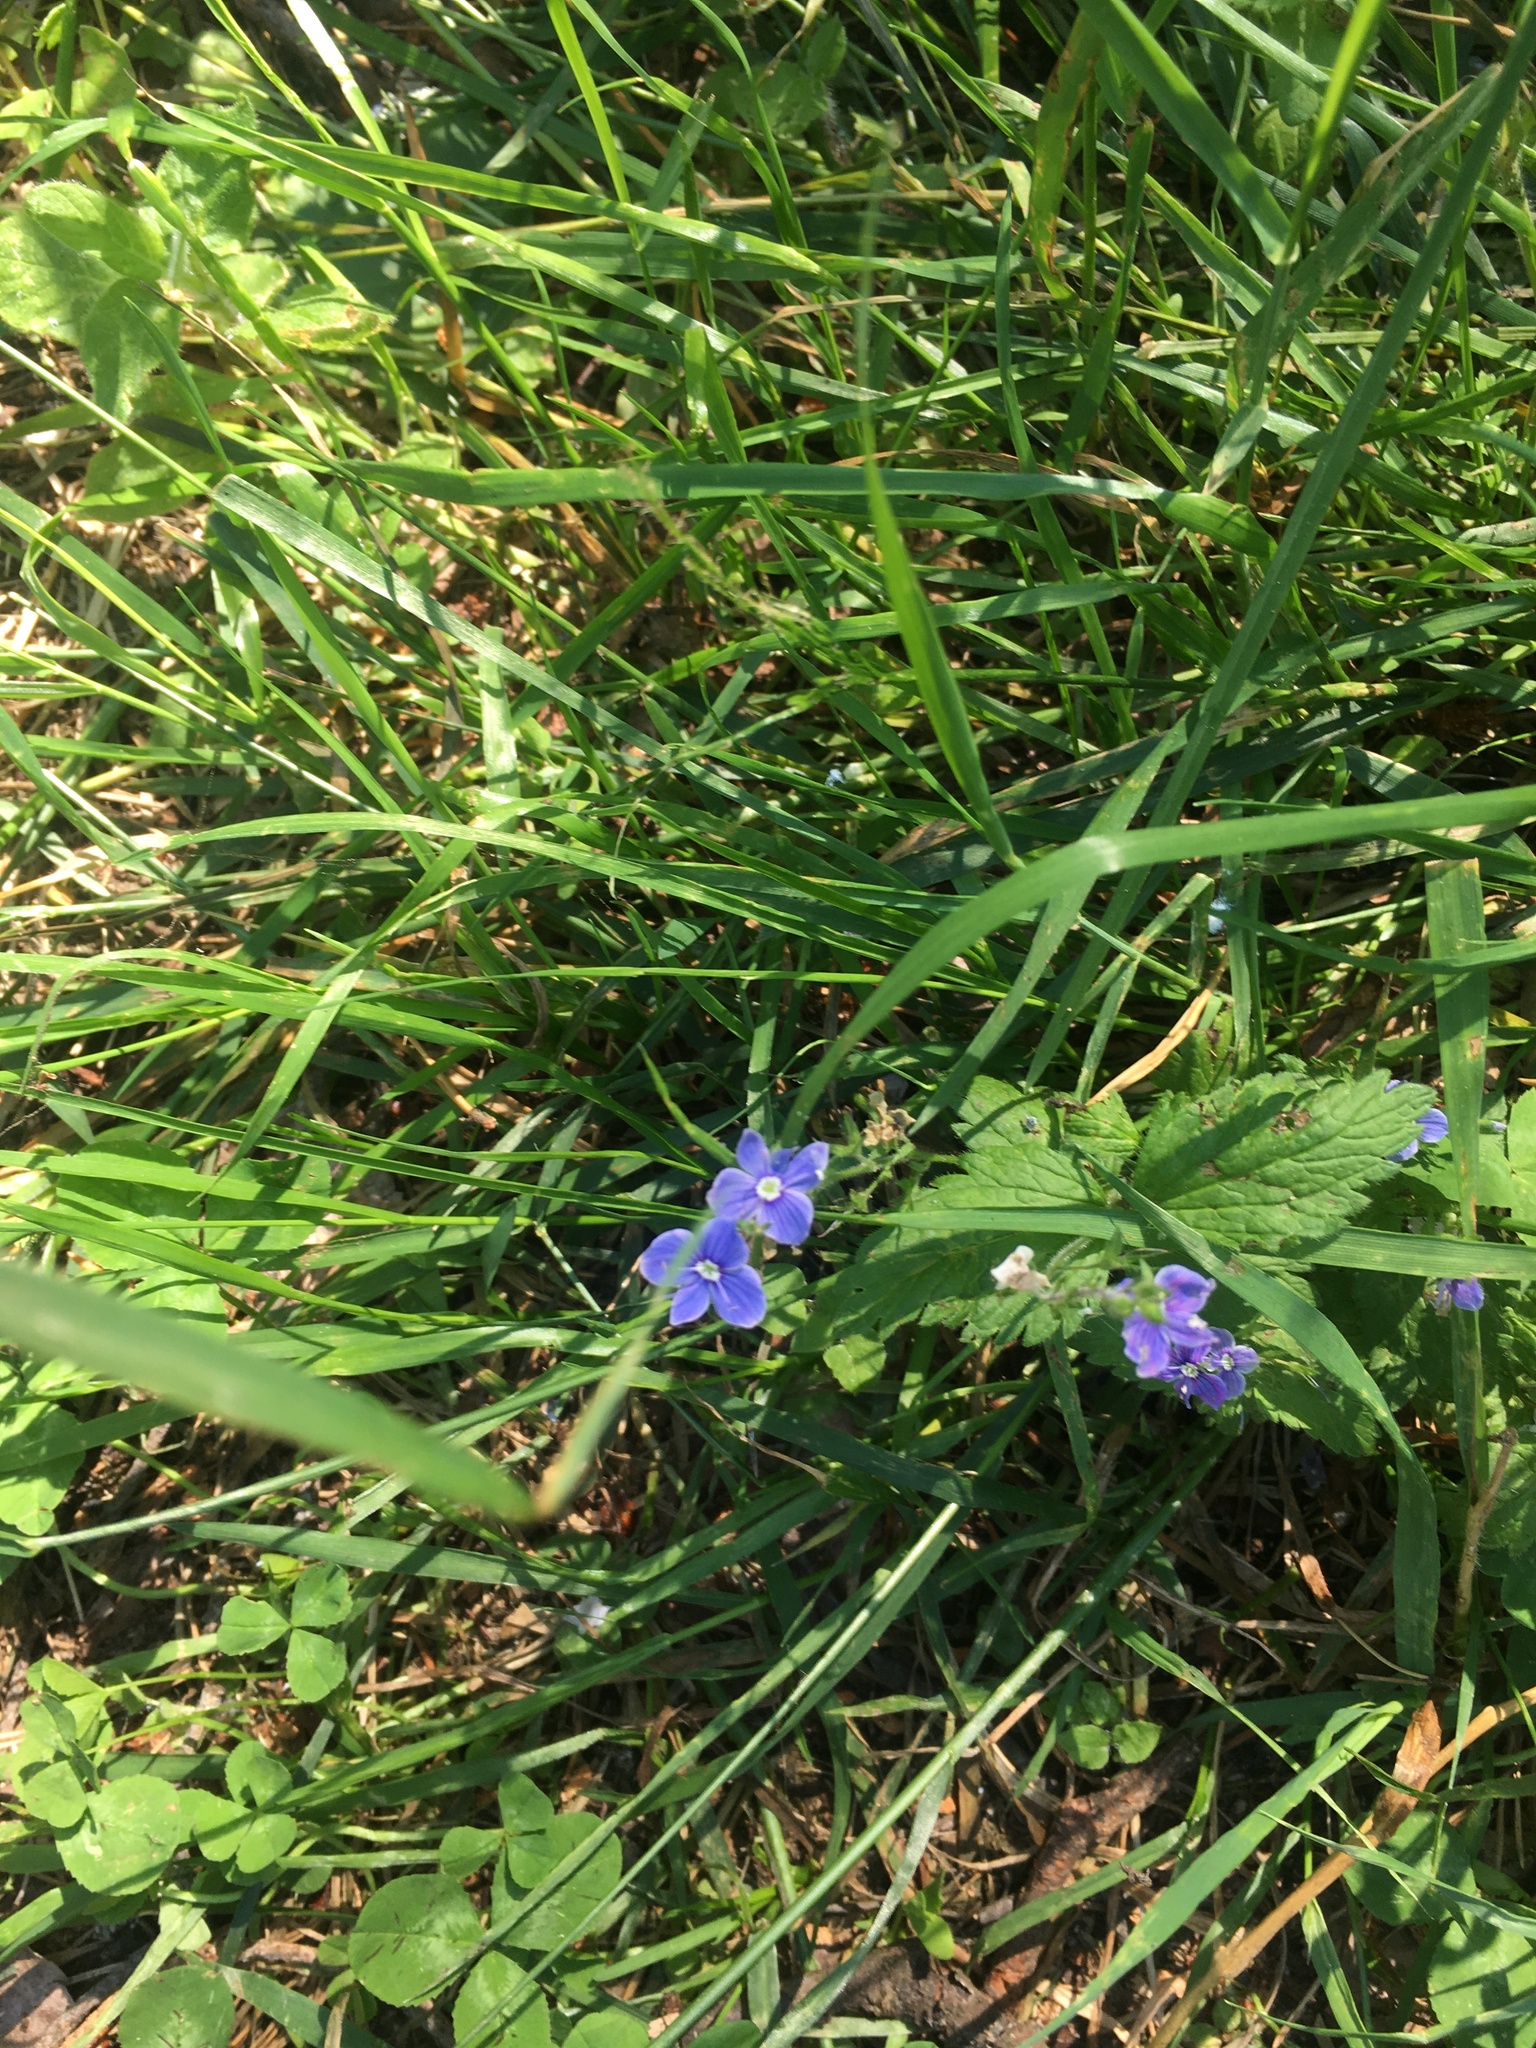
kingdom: Plantae
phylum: Tracheophyta
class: Magnoliopsida
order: Lamiales
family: Plantaginaceae
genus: Veronica
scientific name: Veronica chamaedrys
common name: Germander speedwell
